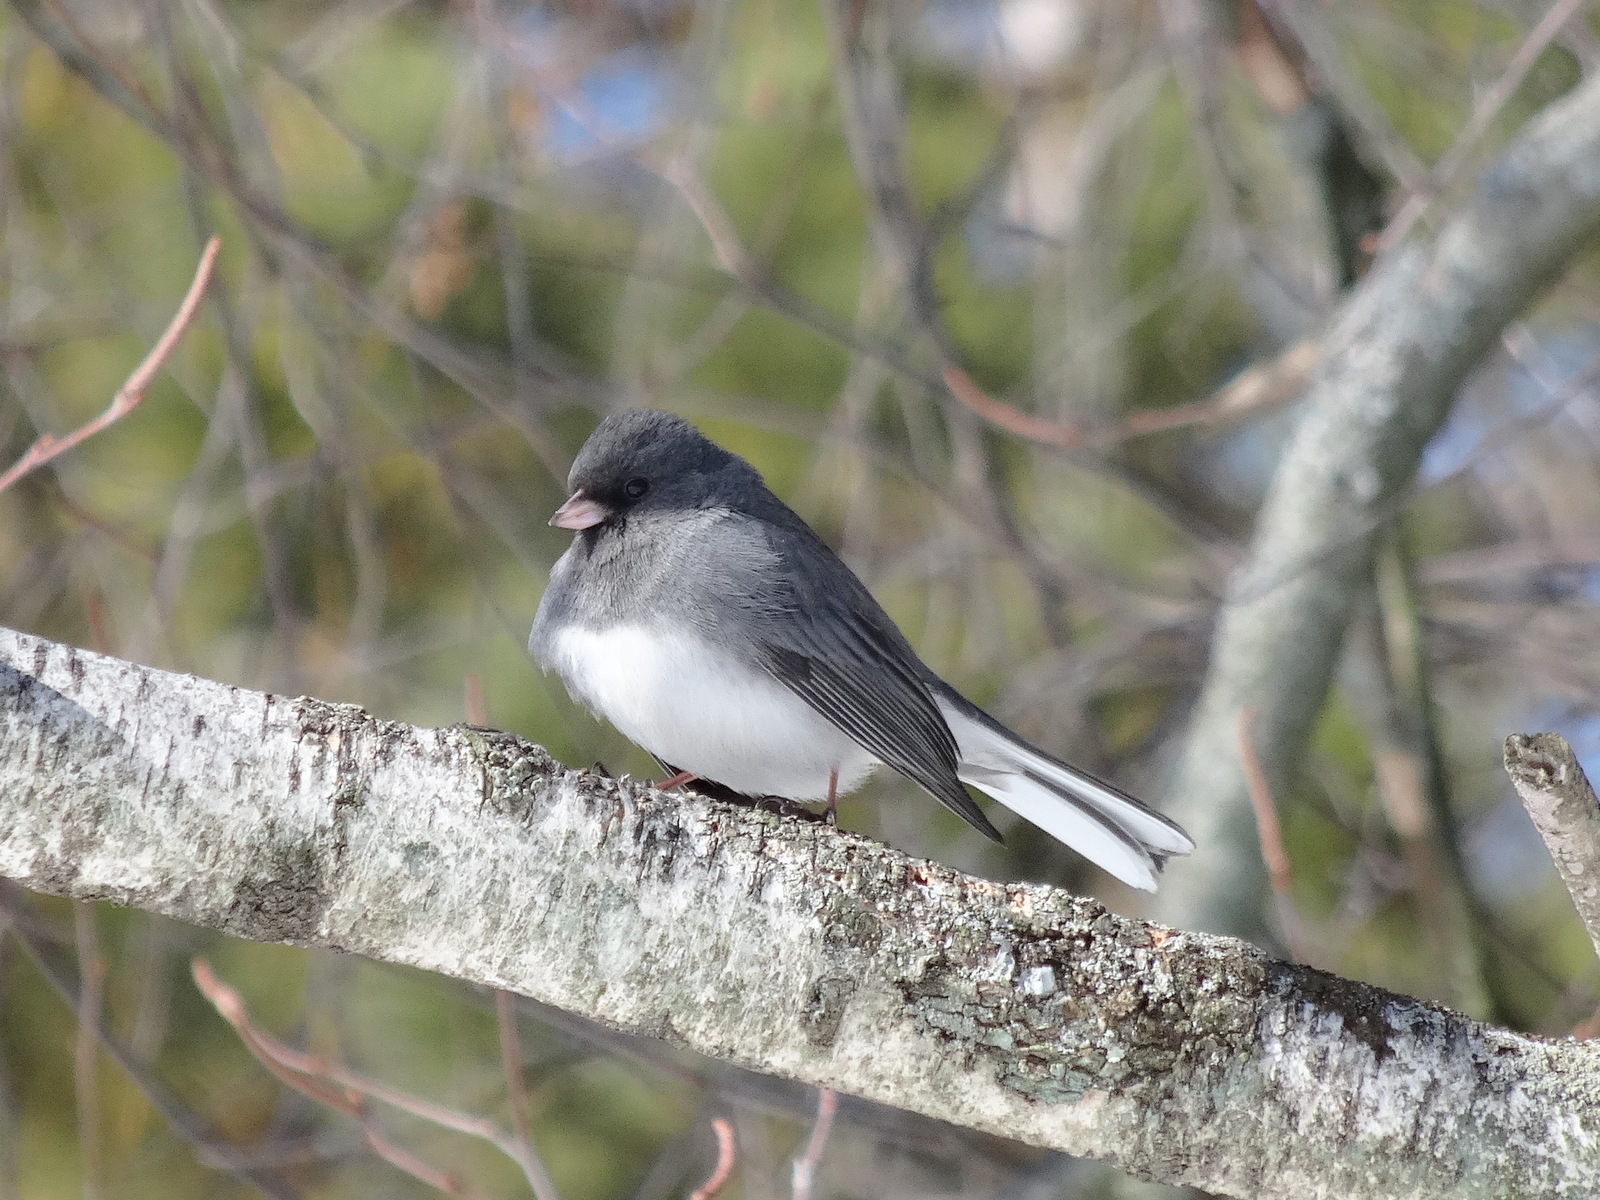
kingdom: Animalia
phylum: Chordata
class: Aves
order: Passeriformes
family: Passerellidae
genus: Junco
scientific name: Junco hyemalis
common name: Dark-eyed junco
